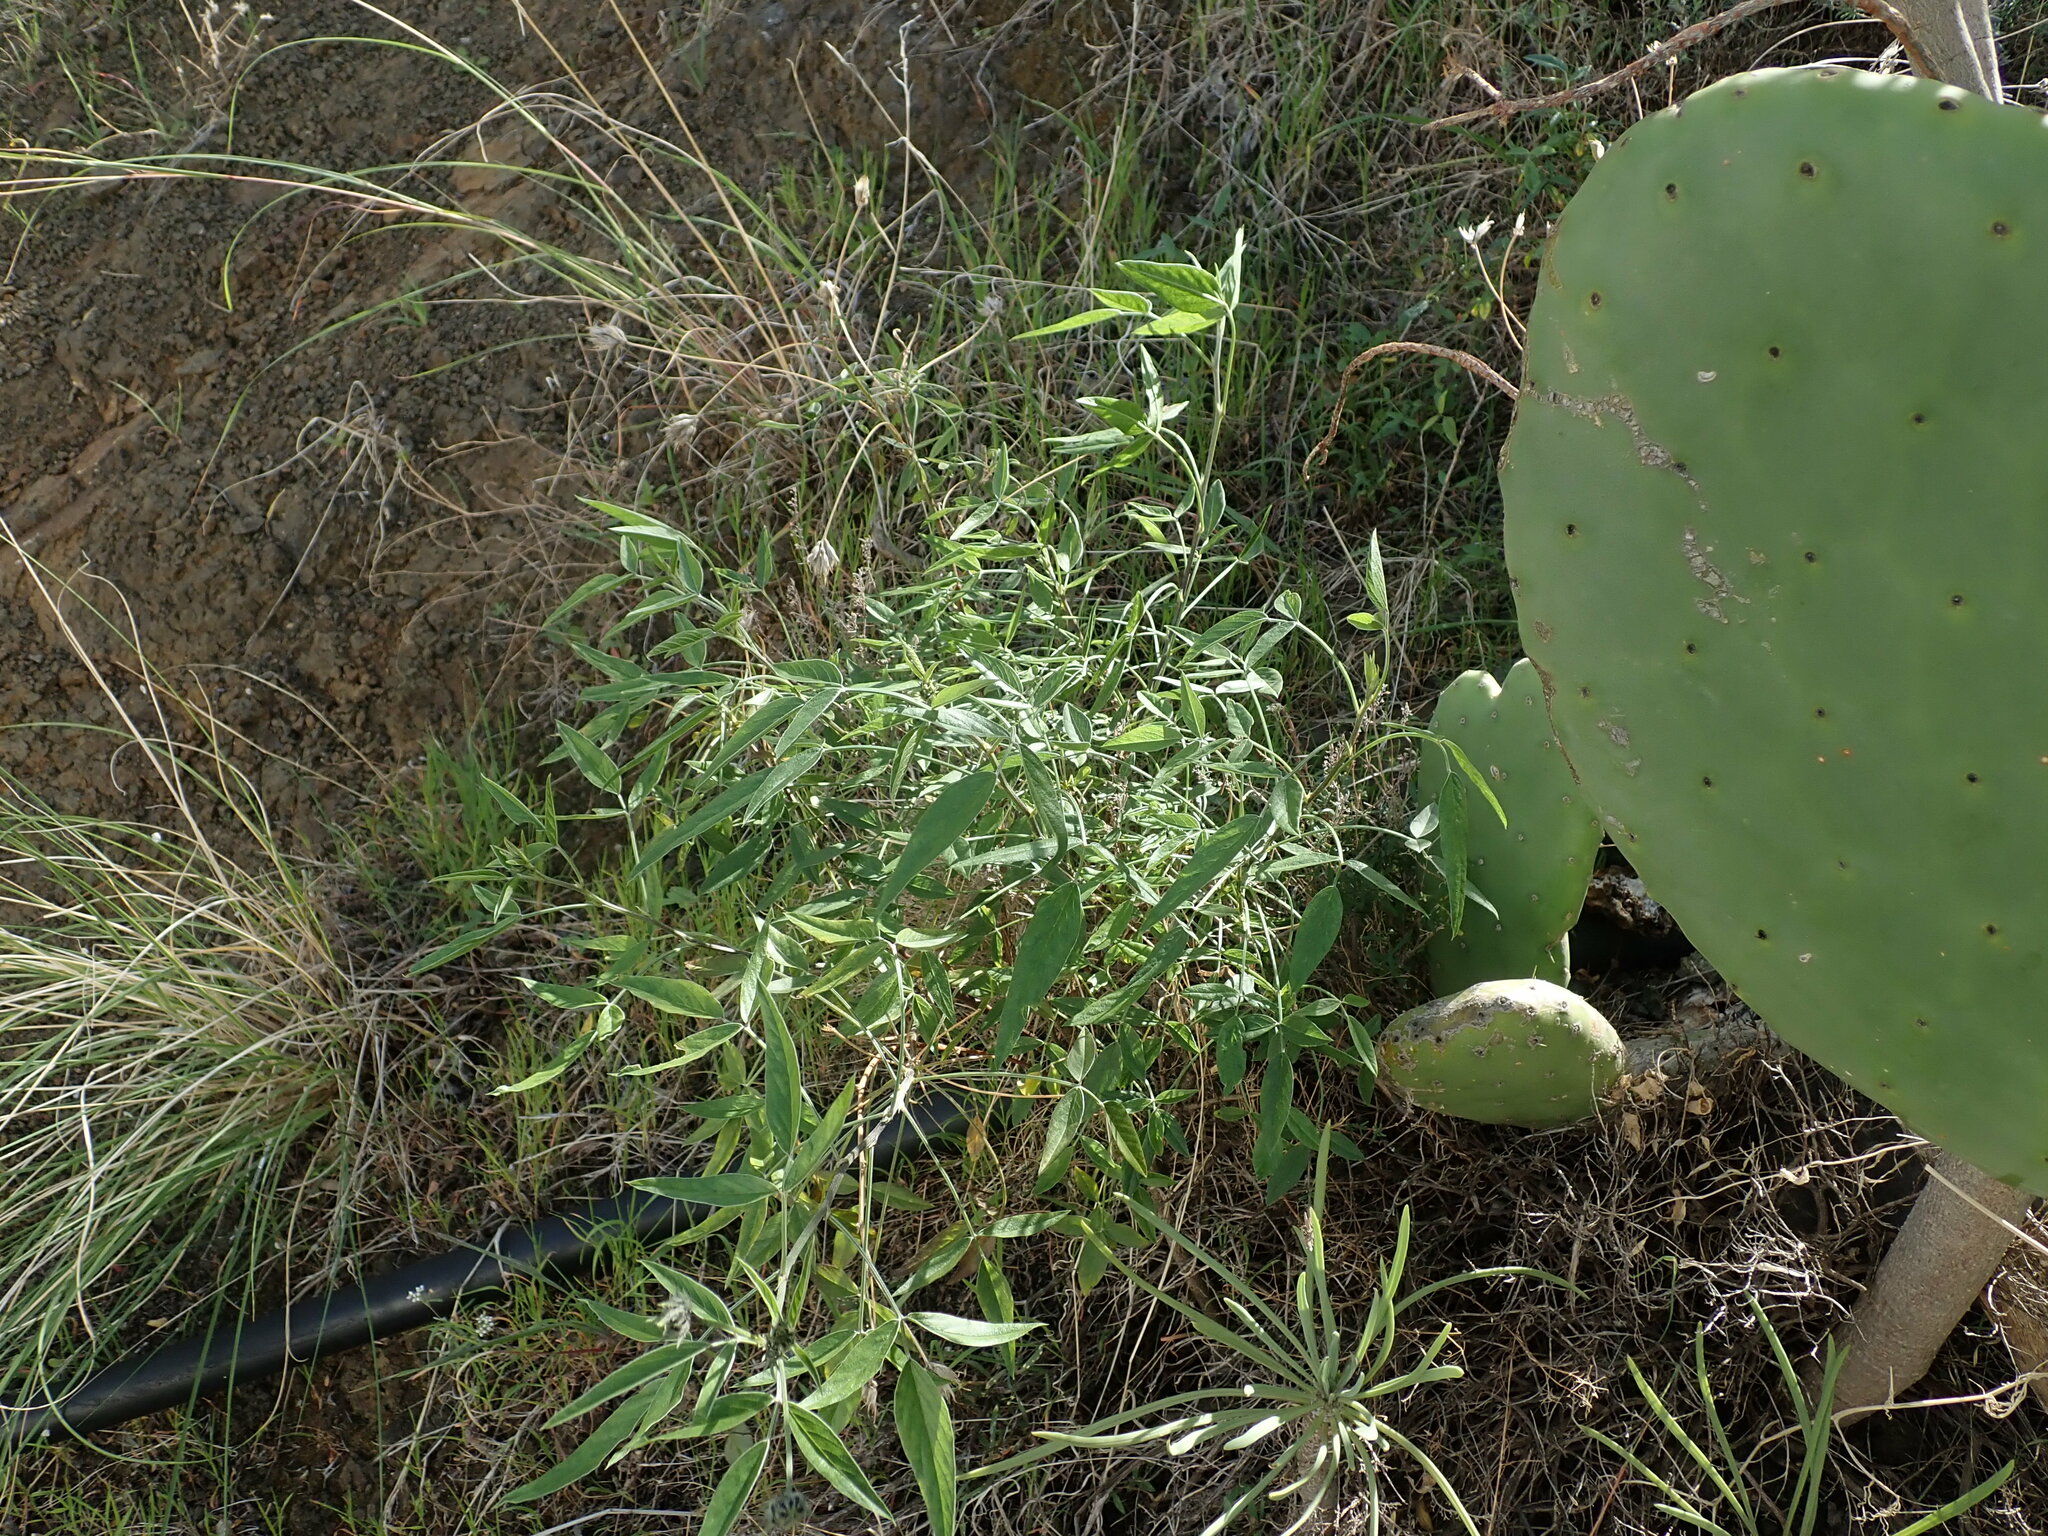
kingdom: Plantae
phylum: Tracheophyta
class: Magnoliopsida
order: Fabales
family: Fabaceae
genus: Bituminaria
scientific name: Bituminaria bituminosa
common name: Arabian pea
